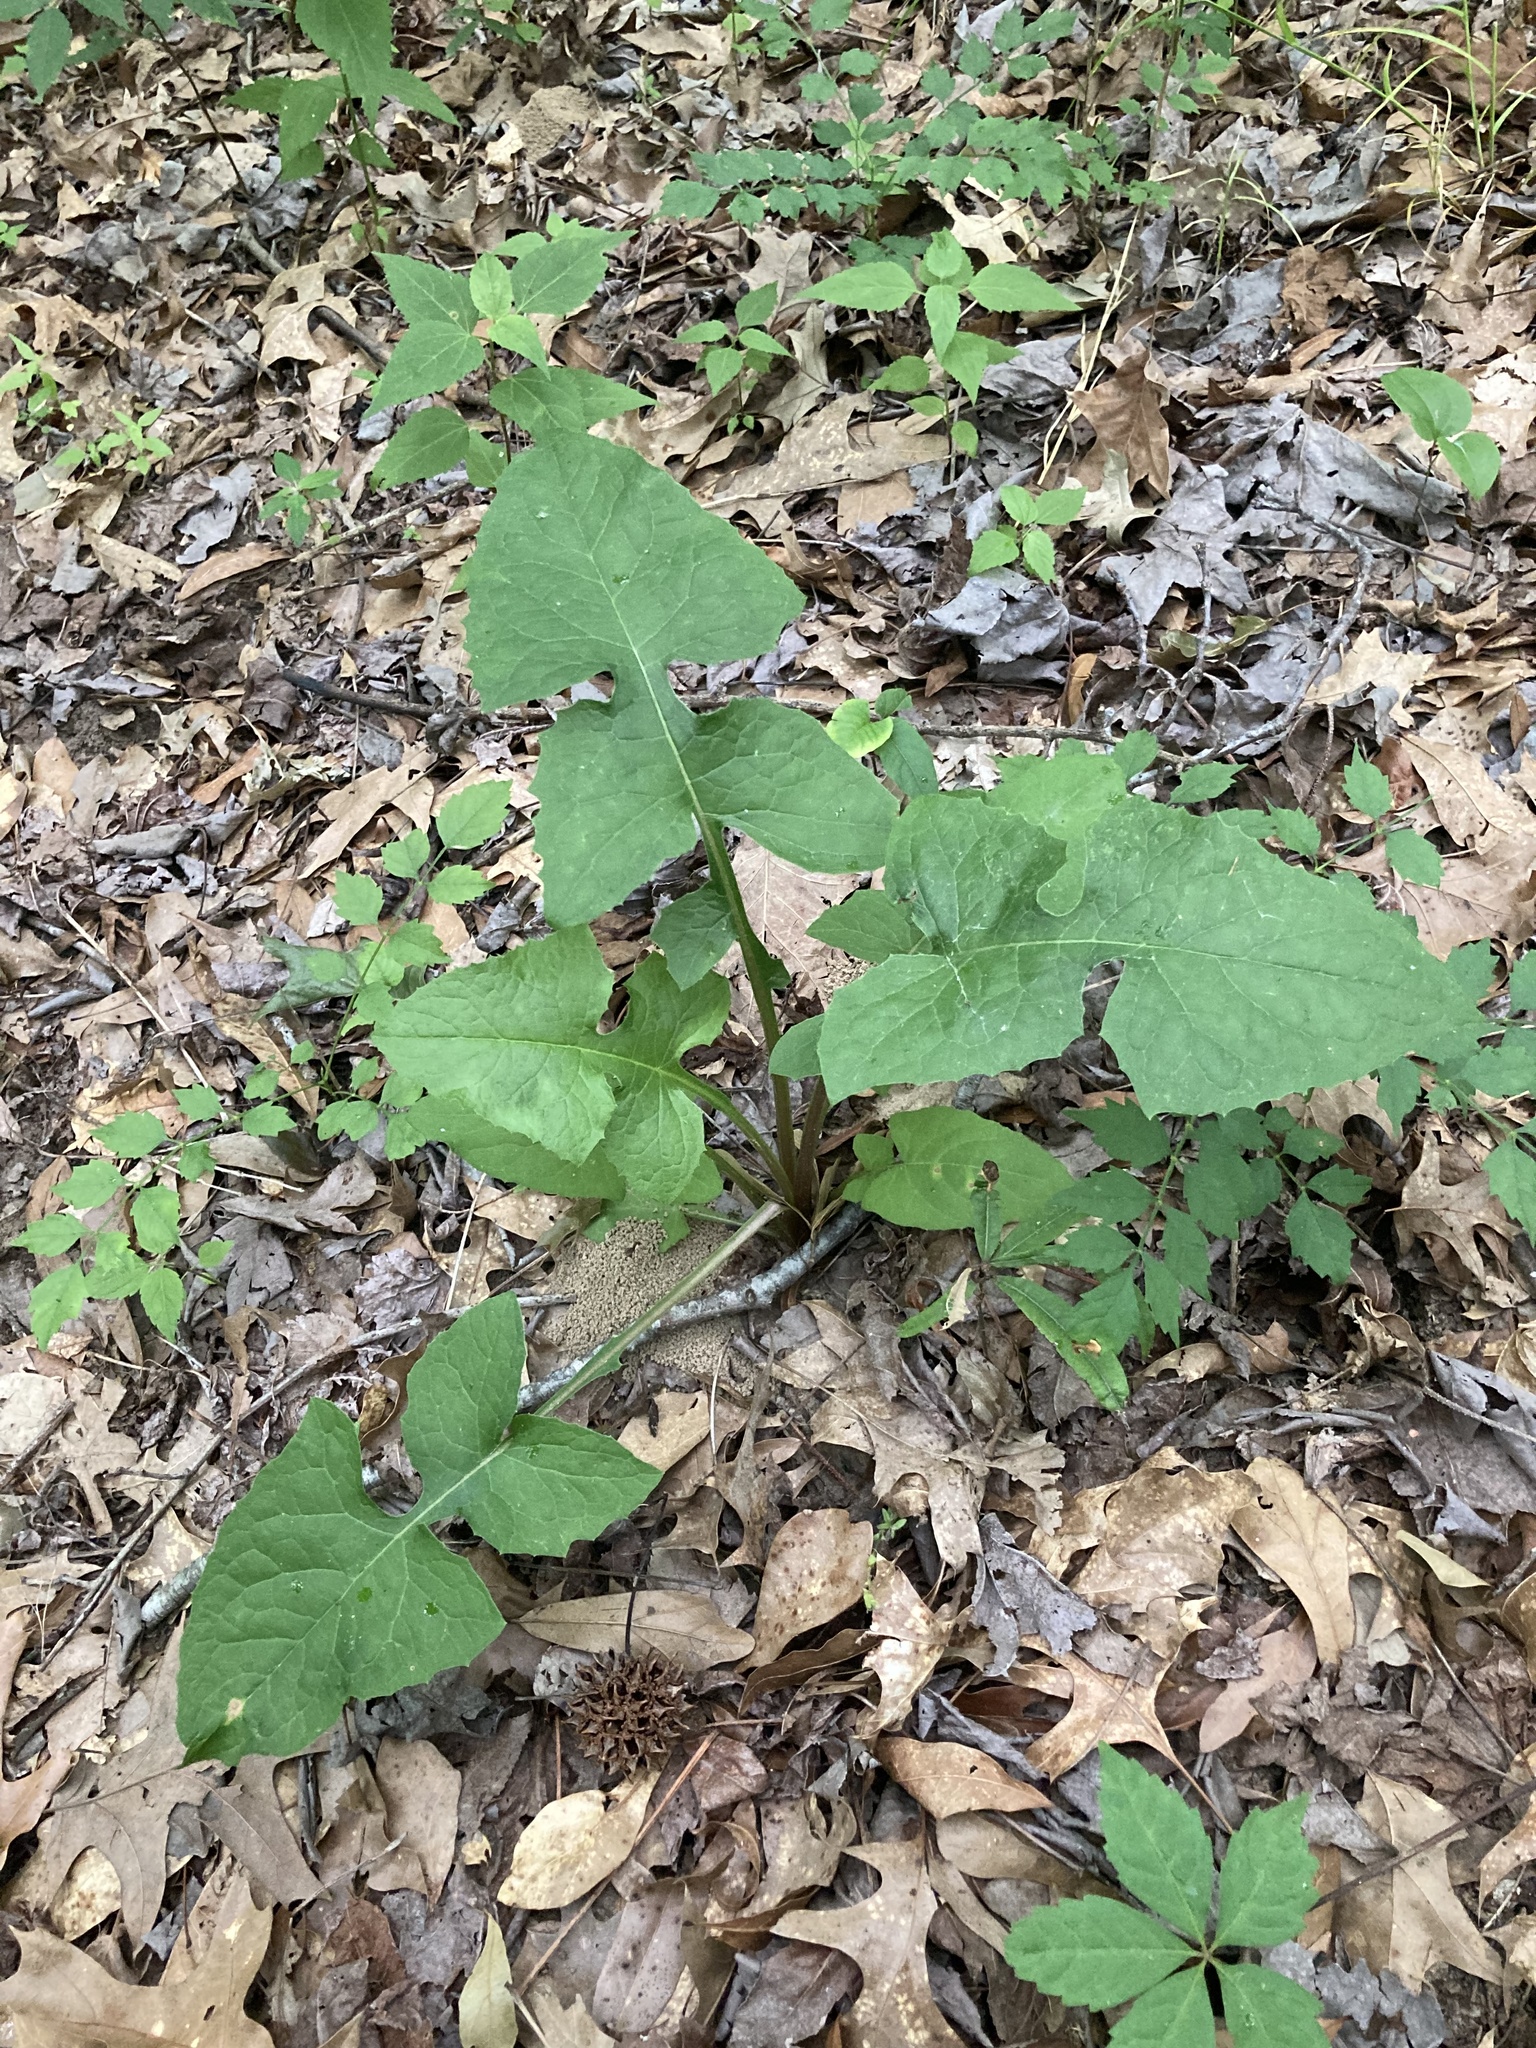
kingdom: Plantae
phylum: Tracheophyta
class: Magnoliopsida
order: Asterales
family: Asteraceae
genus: Lactuca
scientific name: Lactuca floridana
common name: Woodland lettuce
